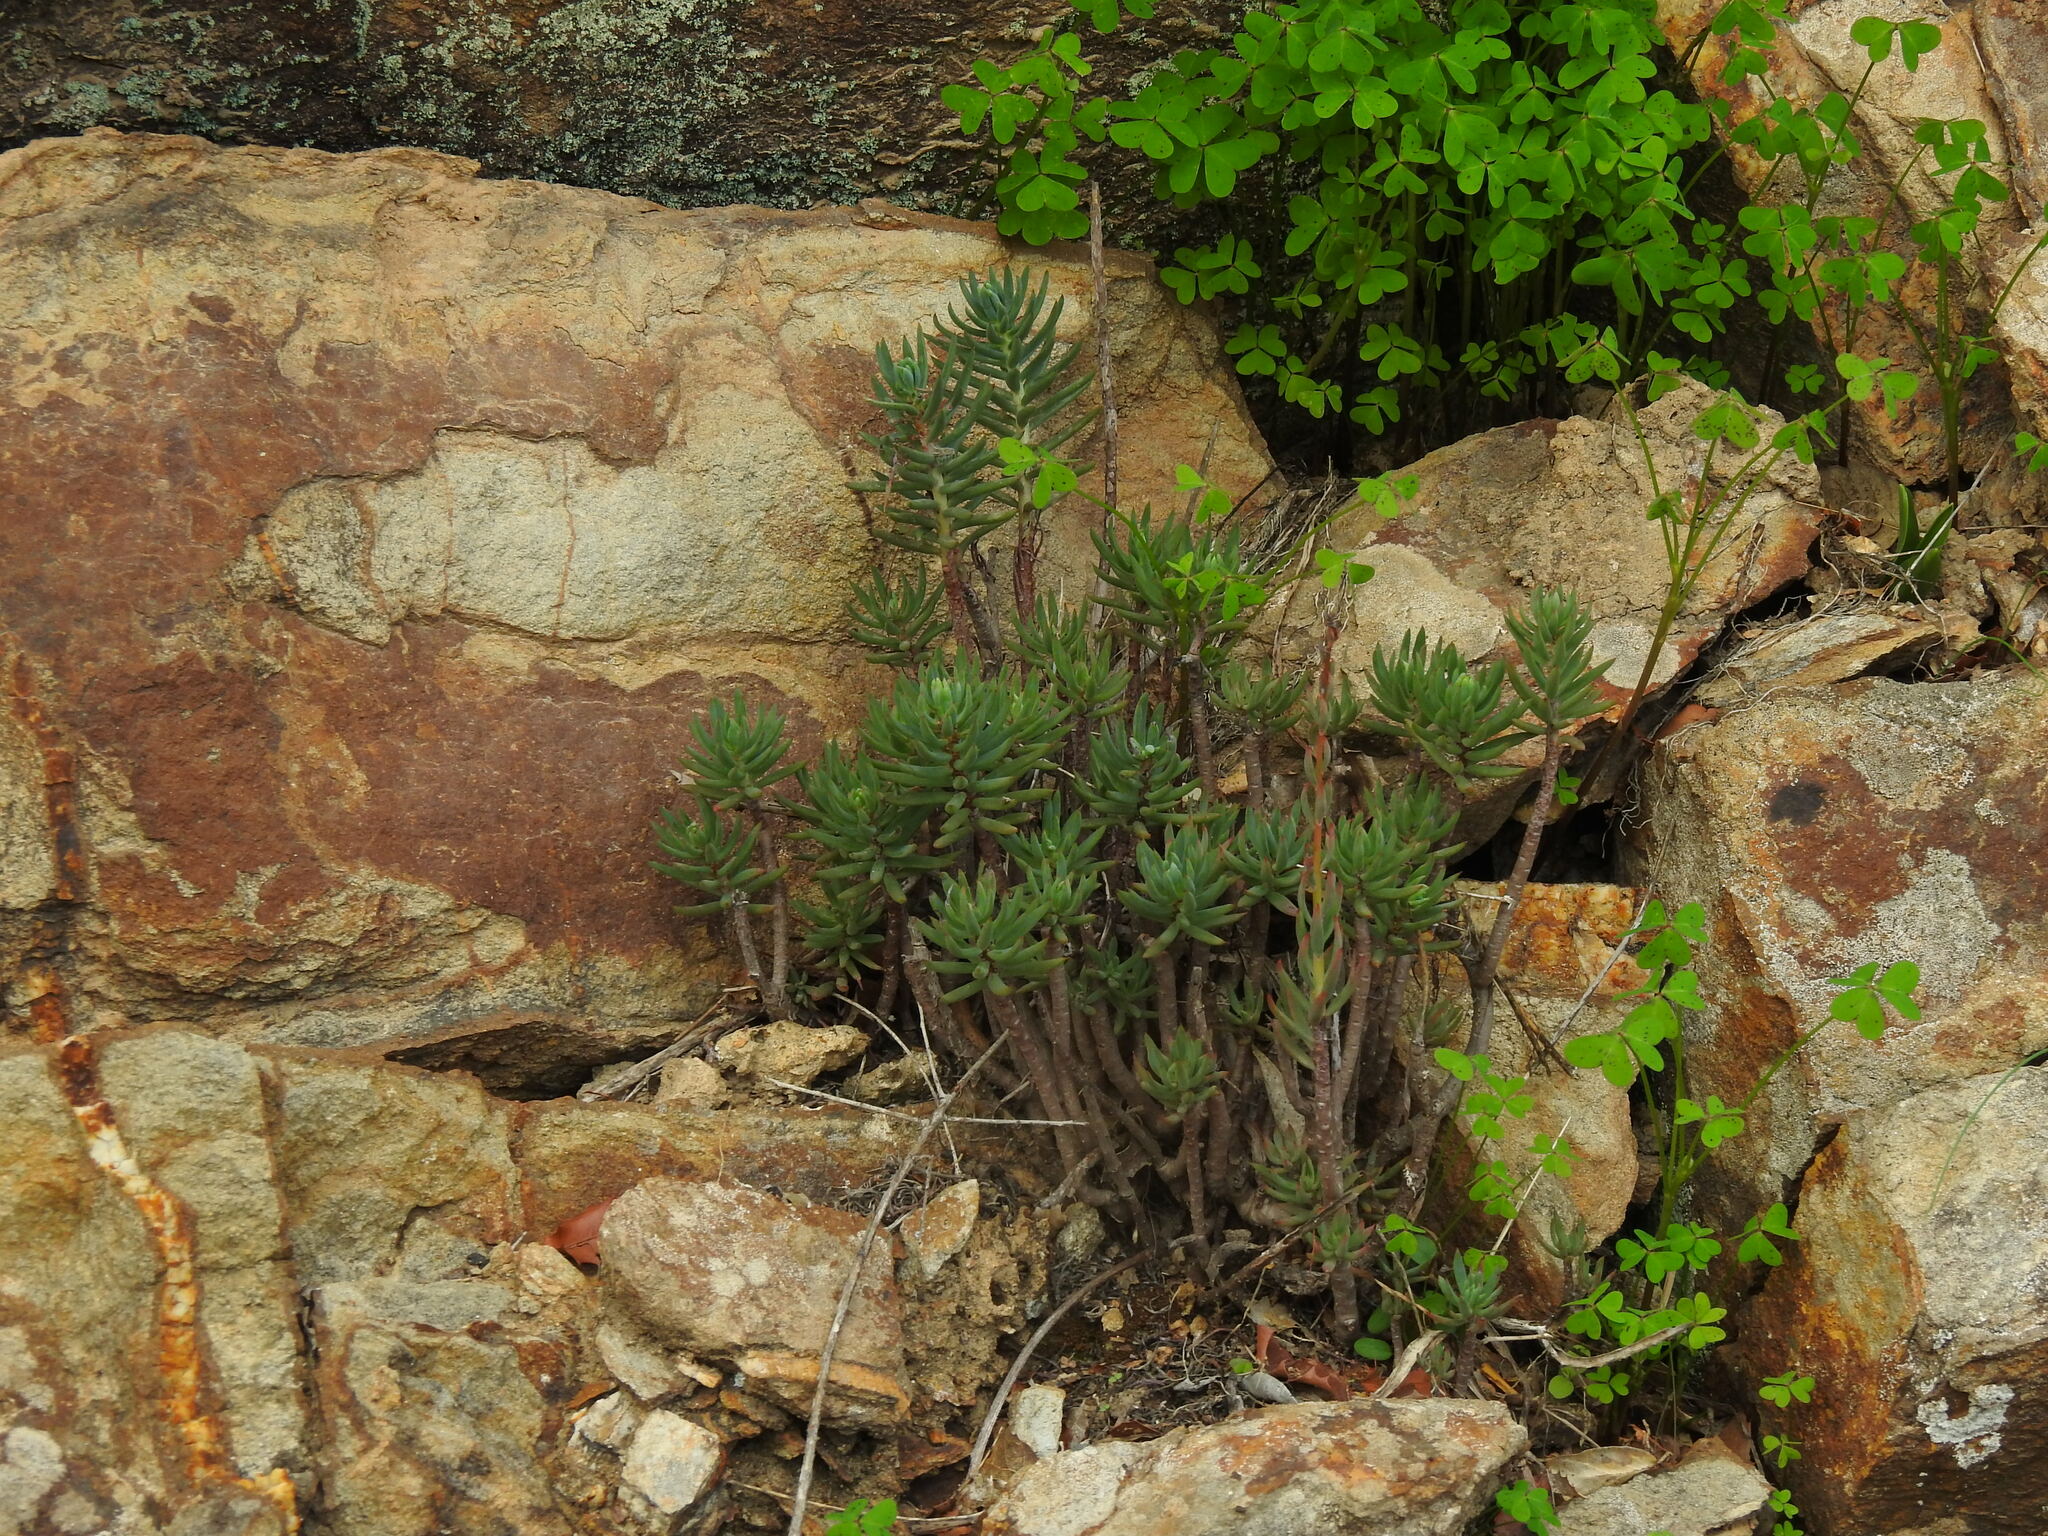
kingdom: Plantae
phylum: Tracheophyta
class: Magnoliopsida
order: Saxifragales
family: Crassulaceae
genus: Petrosedum
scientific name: Petrosedum sediforme
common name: Pale stonecrop
